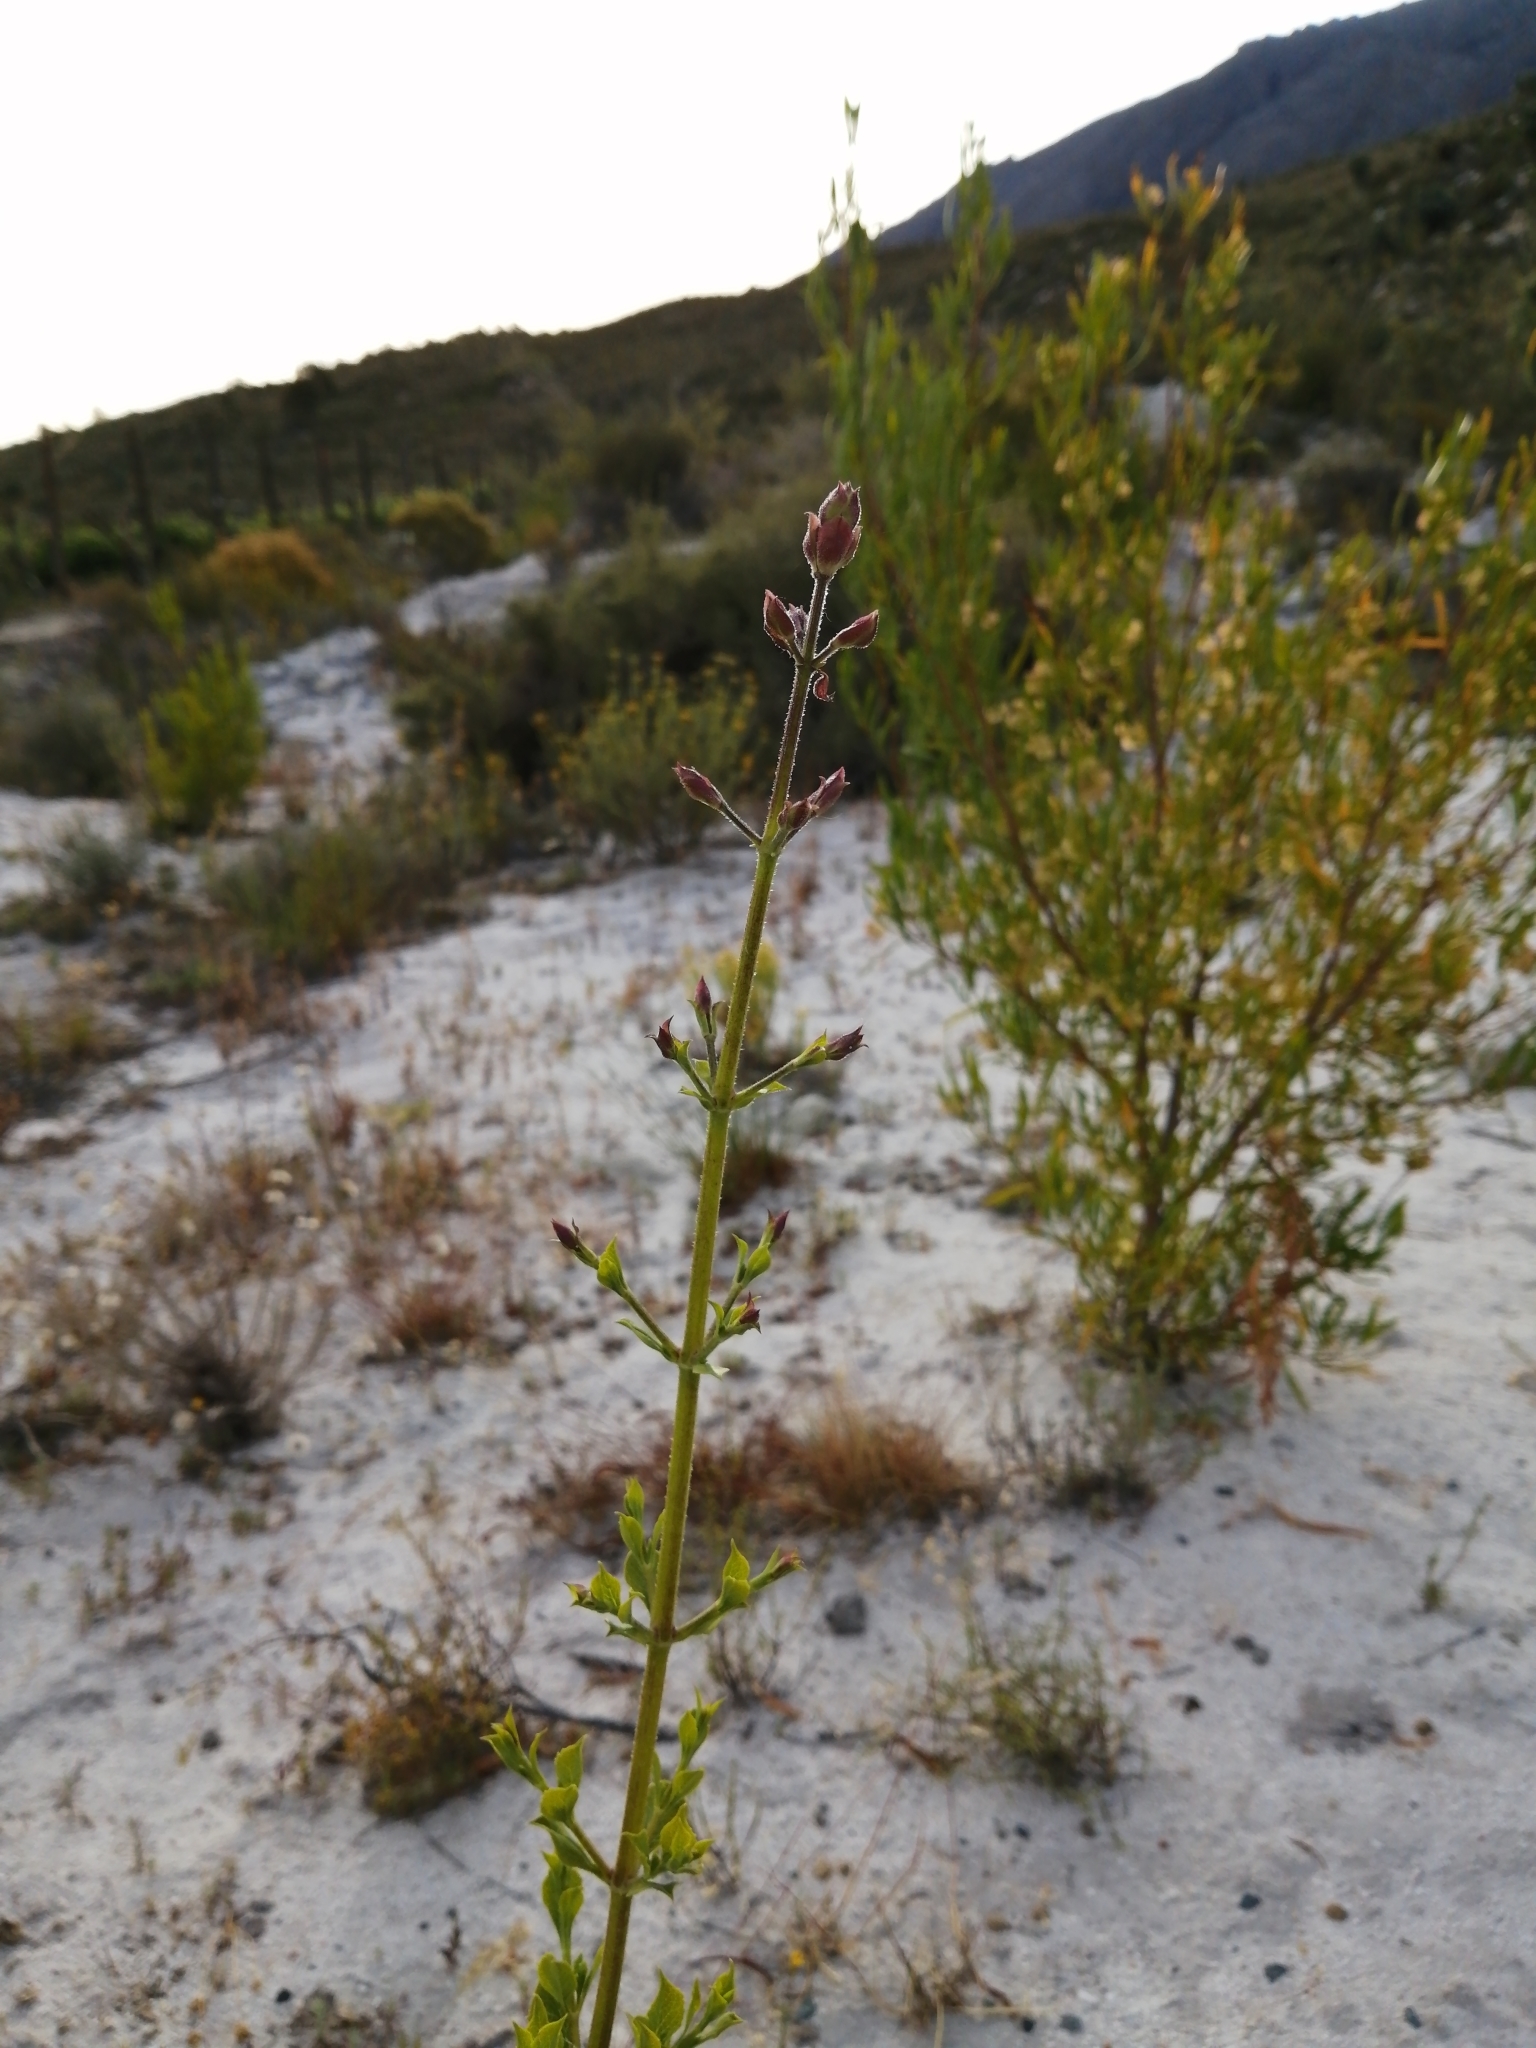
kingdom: Plantae
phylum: Tracheophyta
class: Magnoliopsida
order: Lamiales
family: Lamiaceae
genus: Salvia
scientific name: Salvia chamelaeagnea
